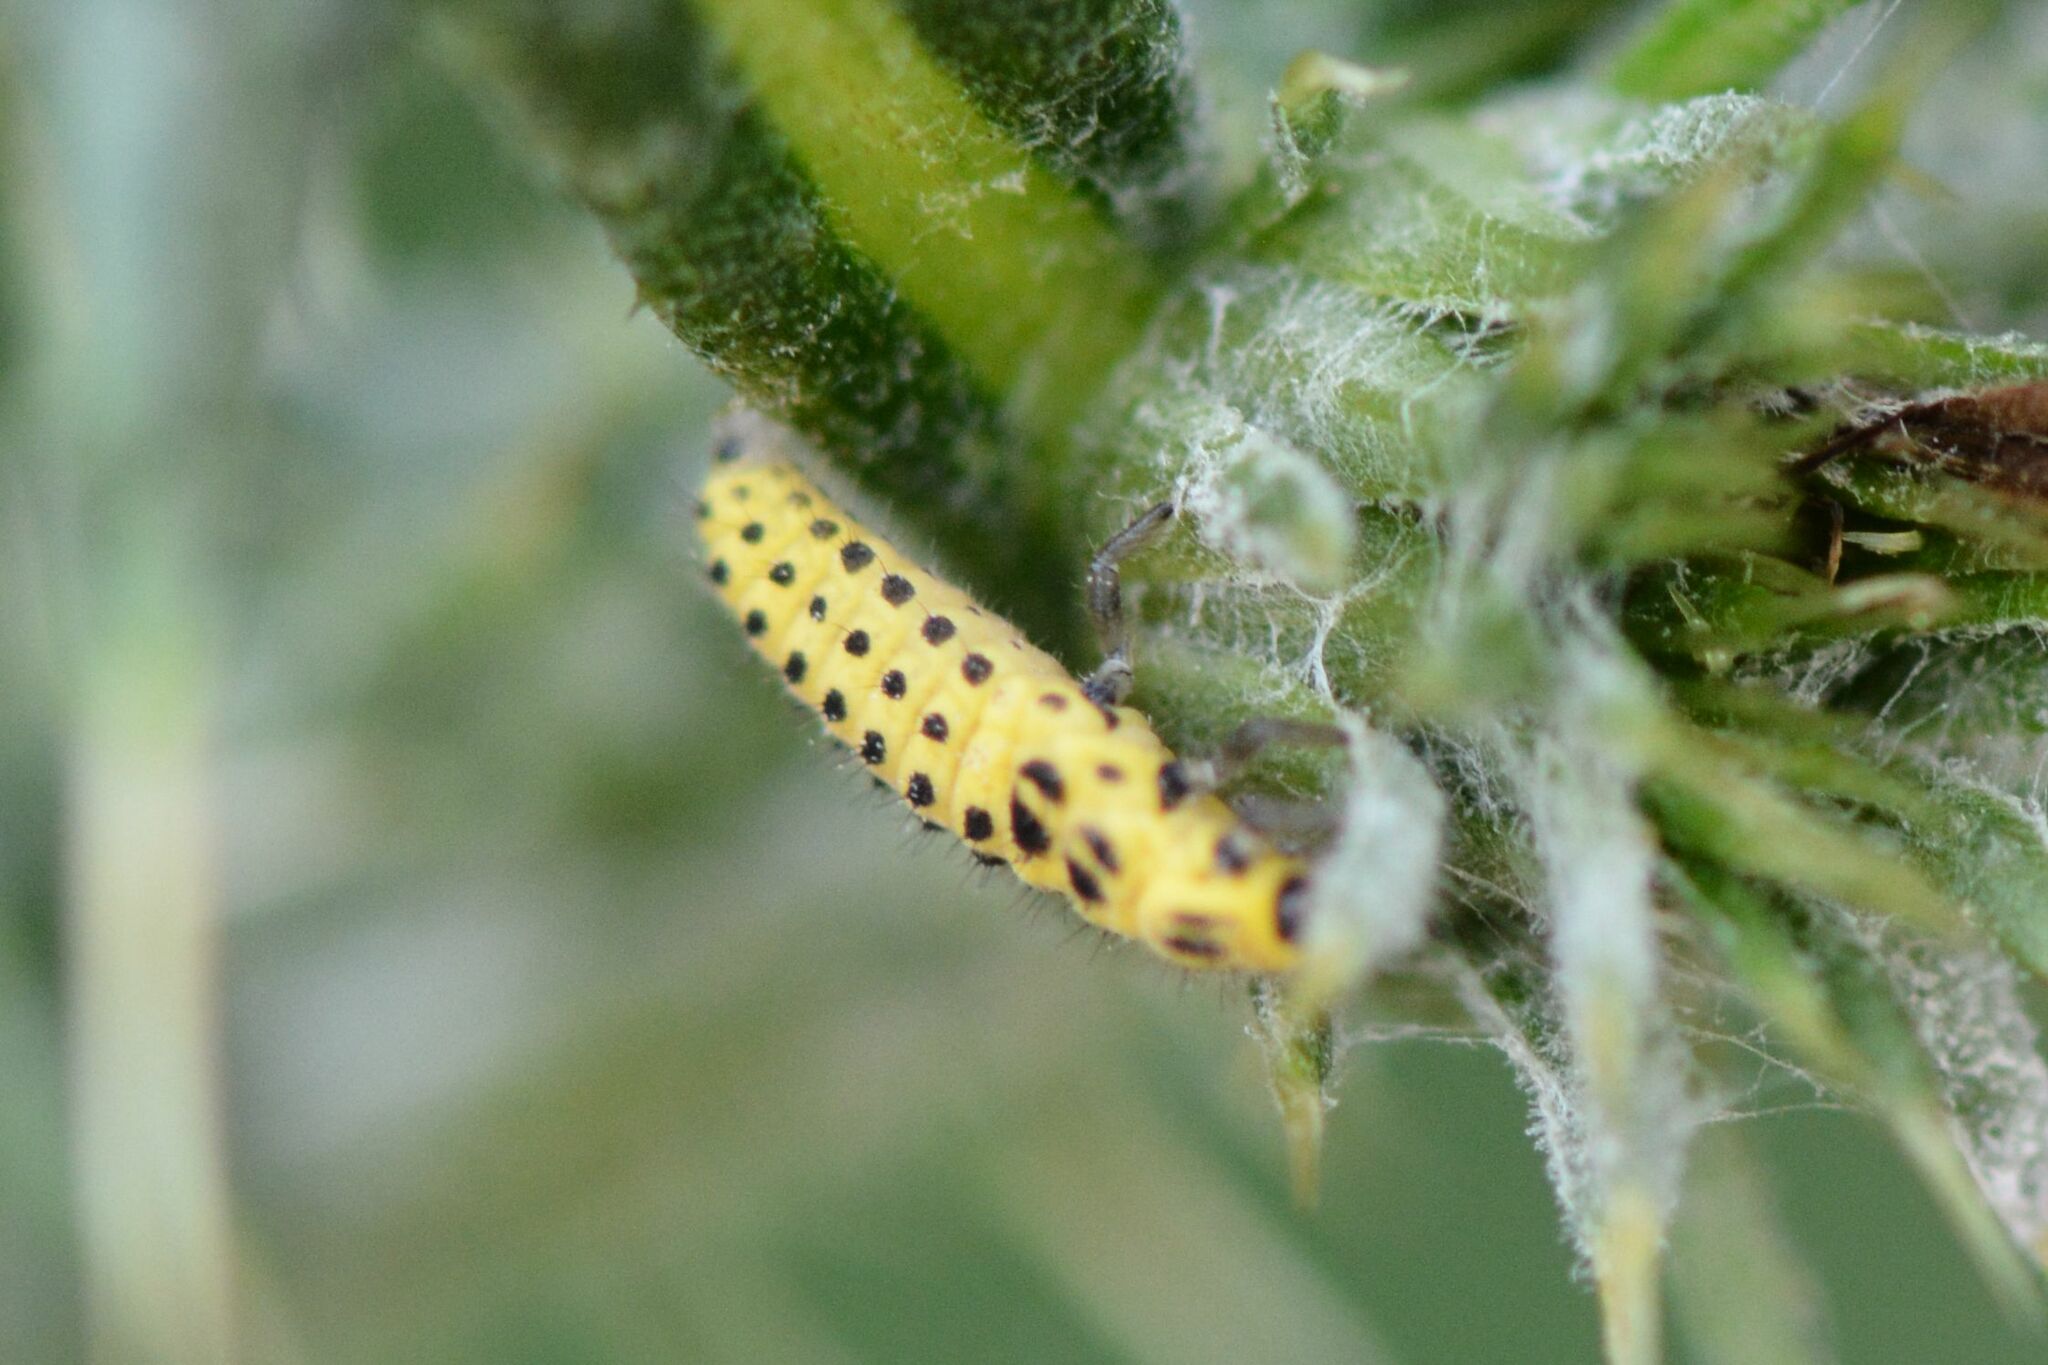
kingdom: Animalia
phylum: Arthropoda
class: Insecta
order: Coleoptera
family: Coccinellidae
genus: Psyllobora
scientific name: Psyllobora vigintiduopunctata
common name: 22-spot ladybird
